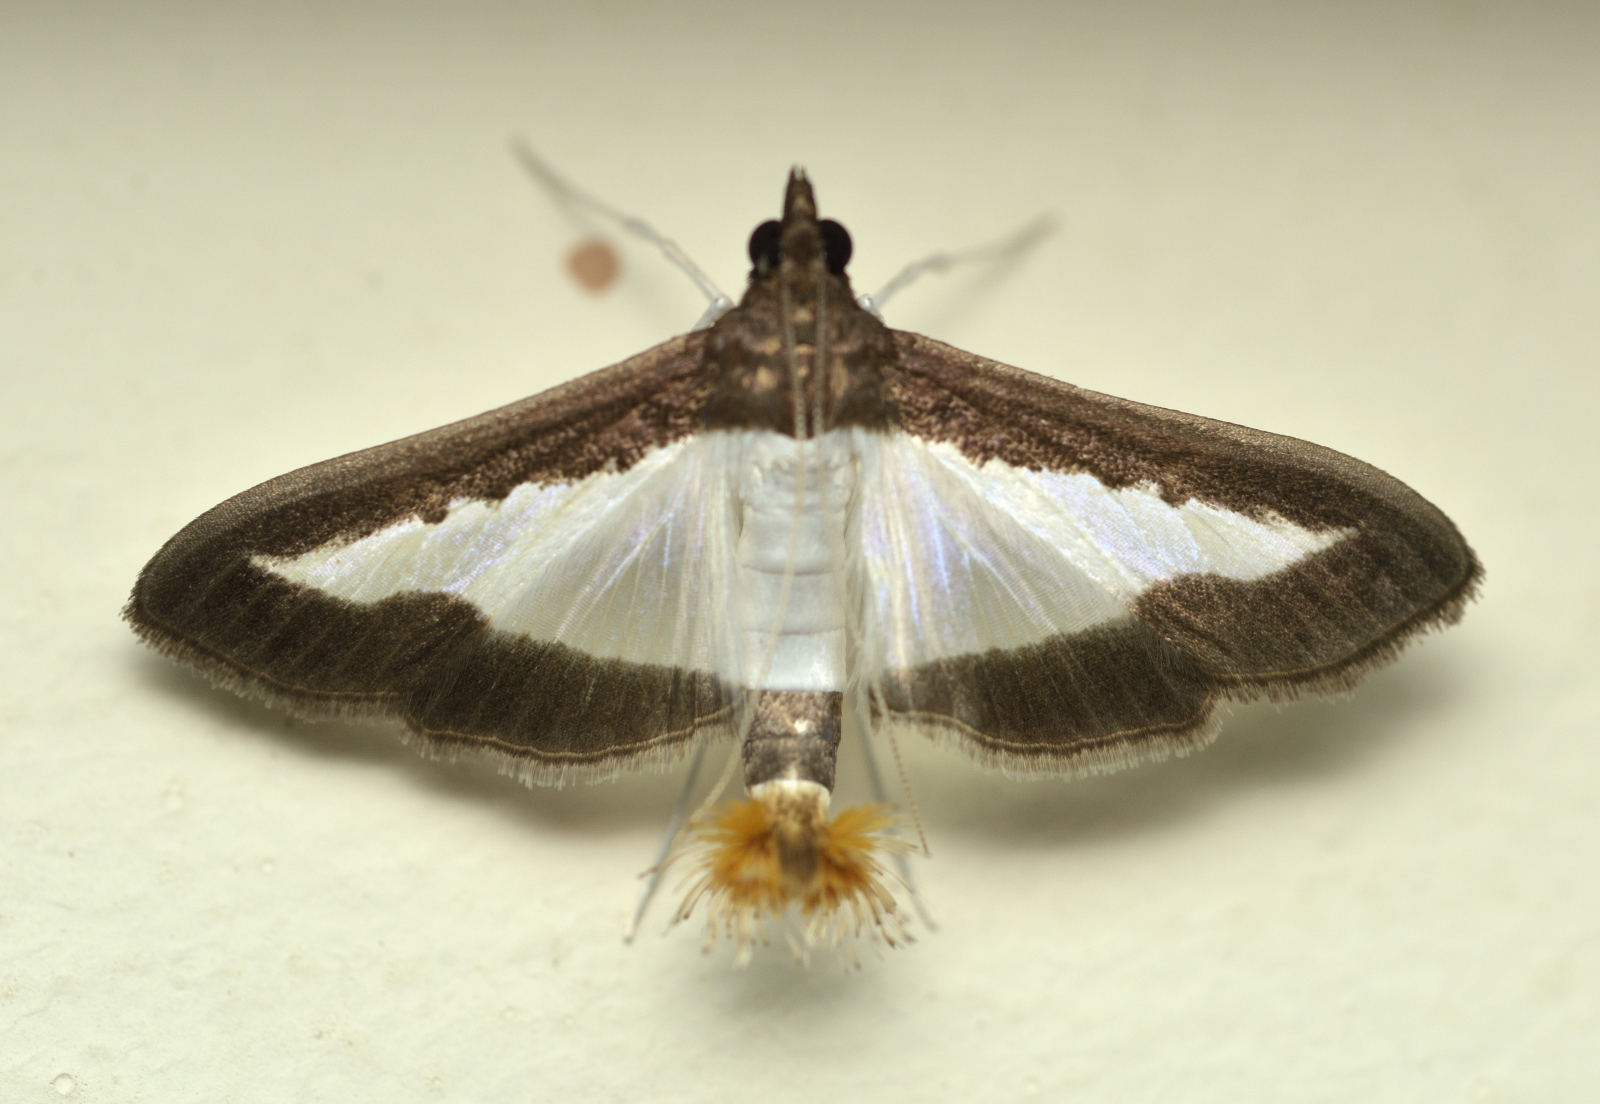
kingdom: Animalia
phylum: Arthropoda
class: Insecta
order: Lepidoptera
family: Crambidae
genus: Diaphania
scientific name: Diaphania indica
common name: Cucumber moth
